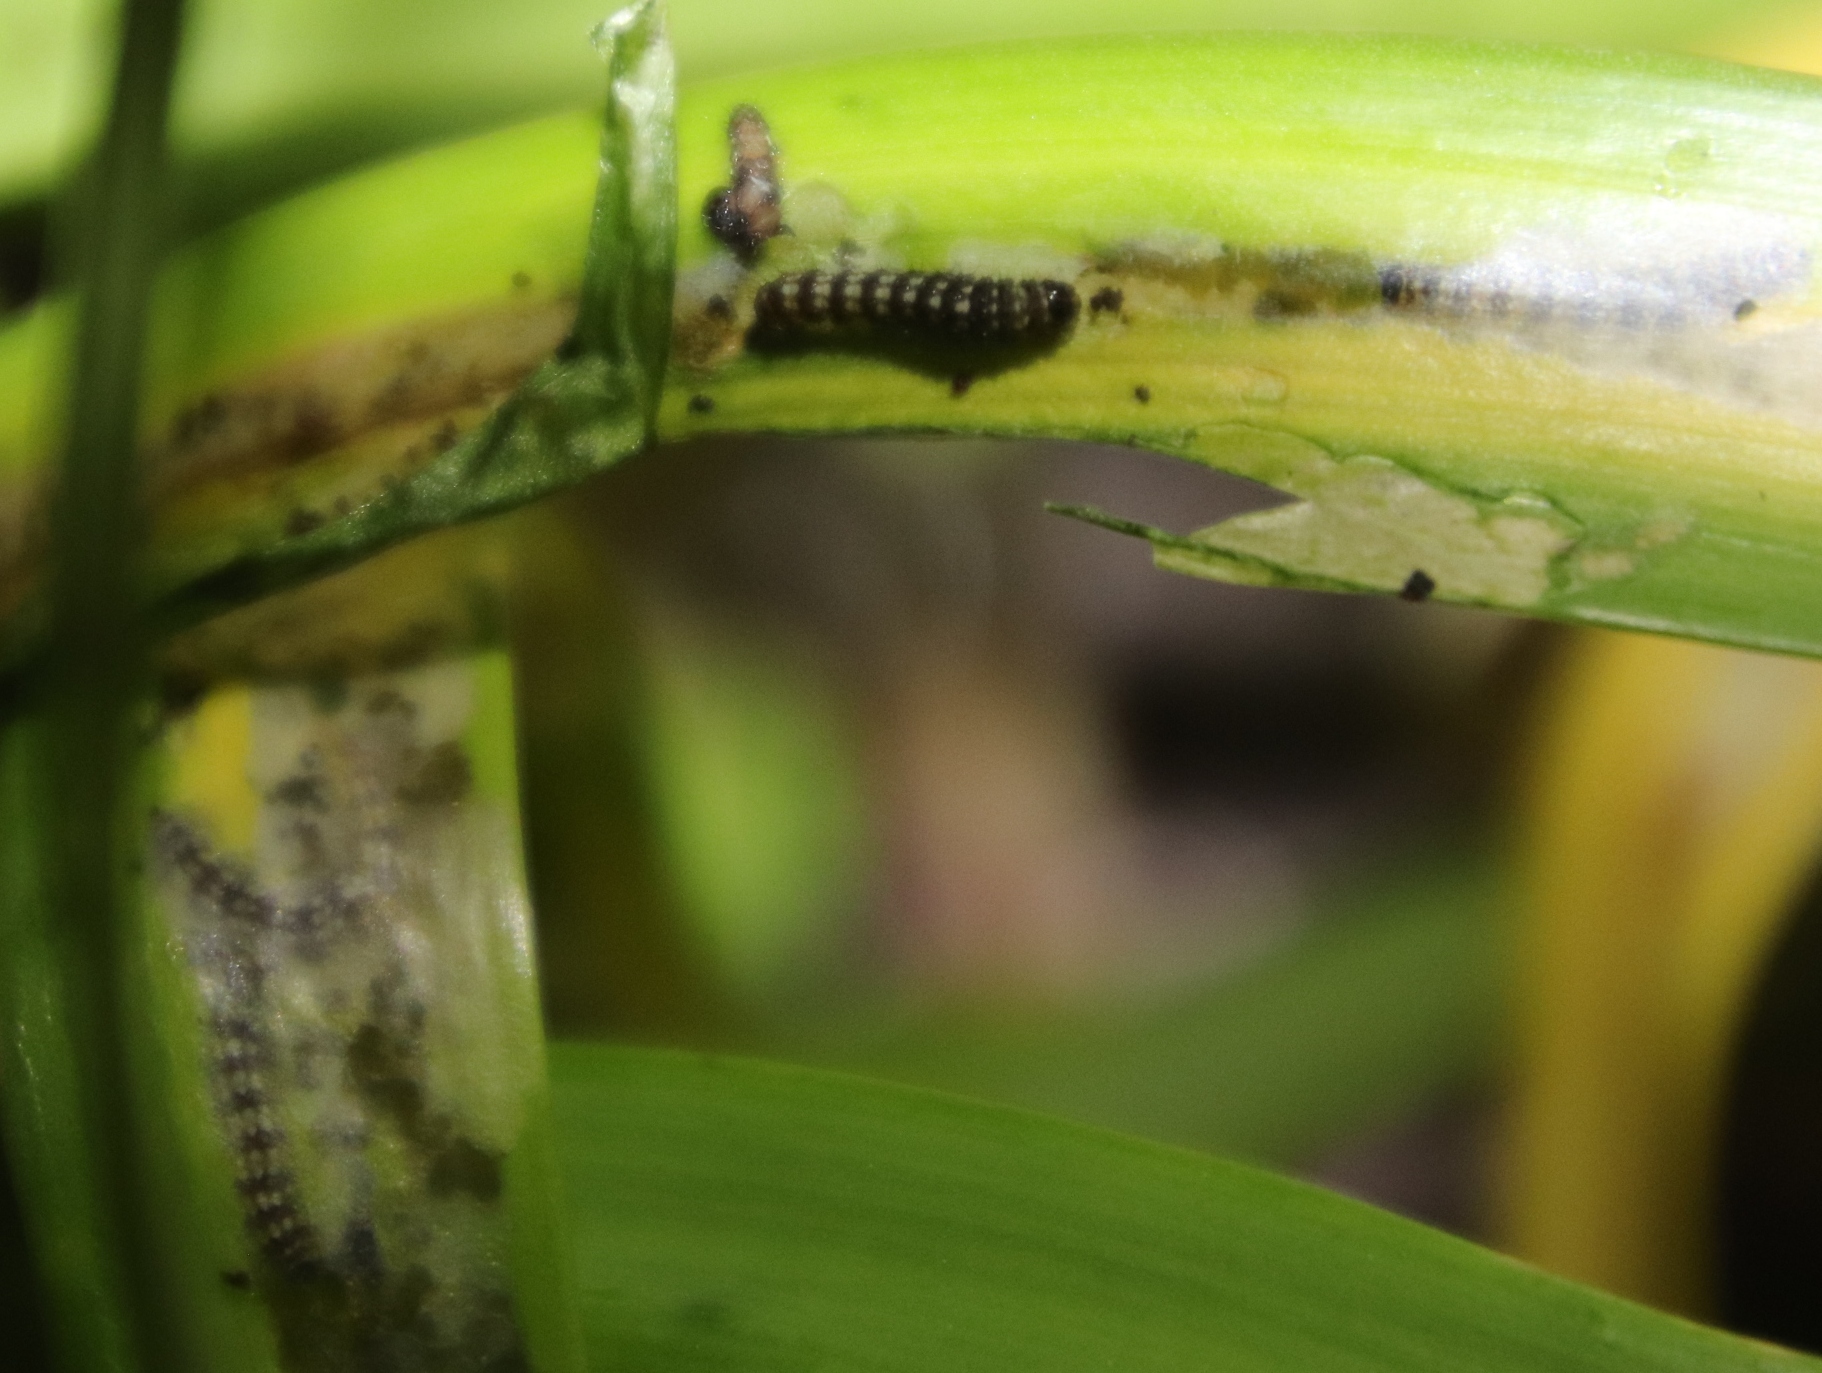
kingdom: Animalia
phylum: Arthropoda
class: Insecta
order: Lepidoptera
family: Noctuidae
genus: Brithys
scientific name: Brithys crini
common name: Kew arches
